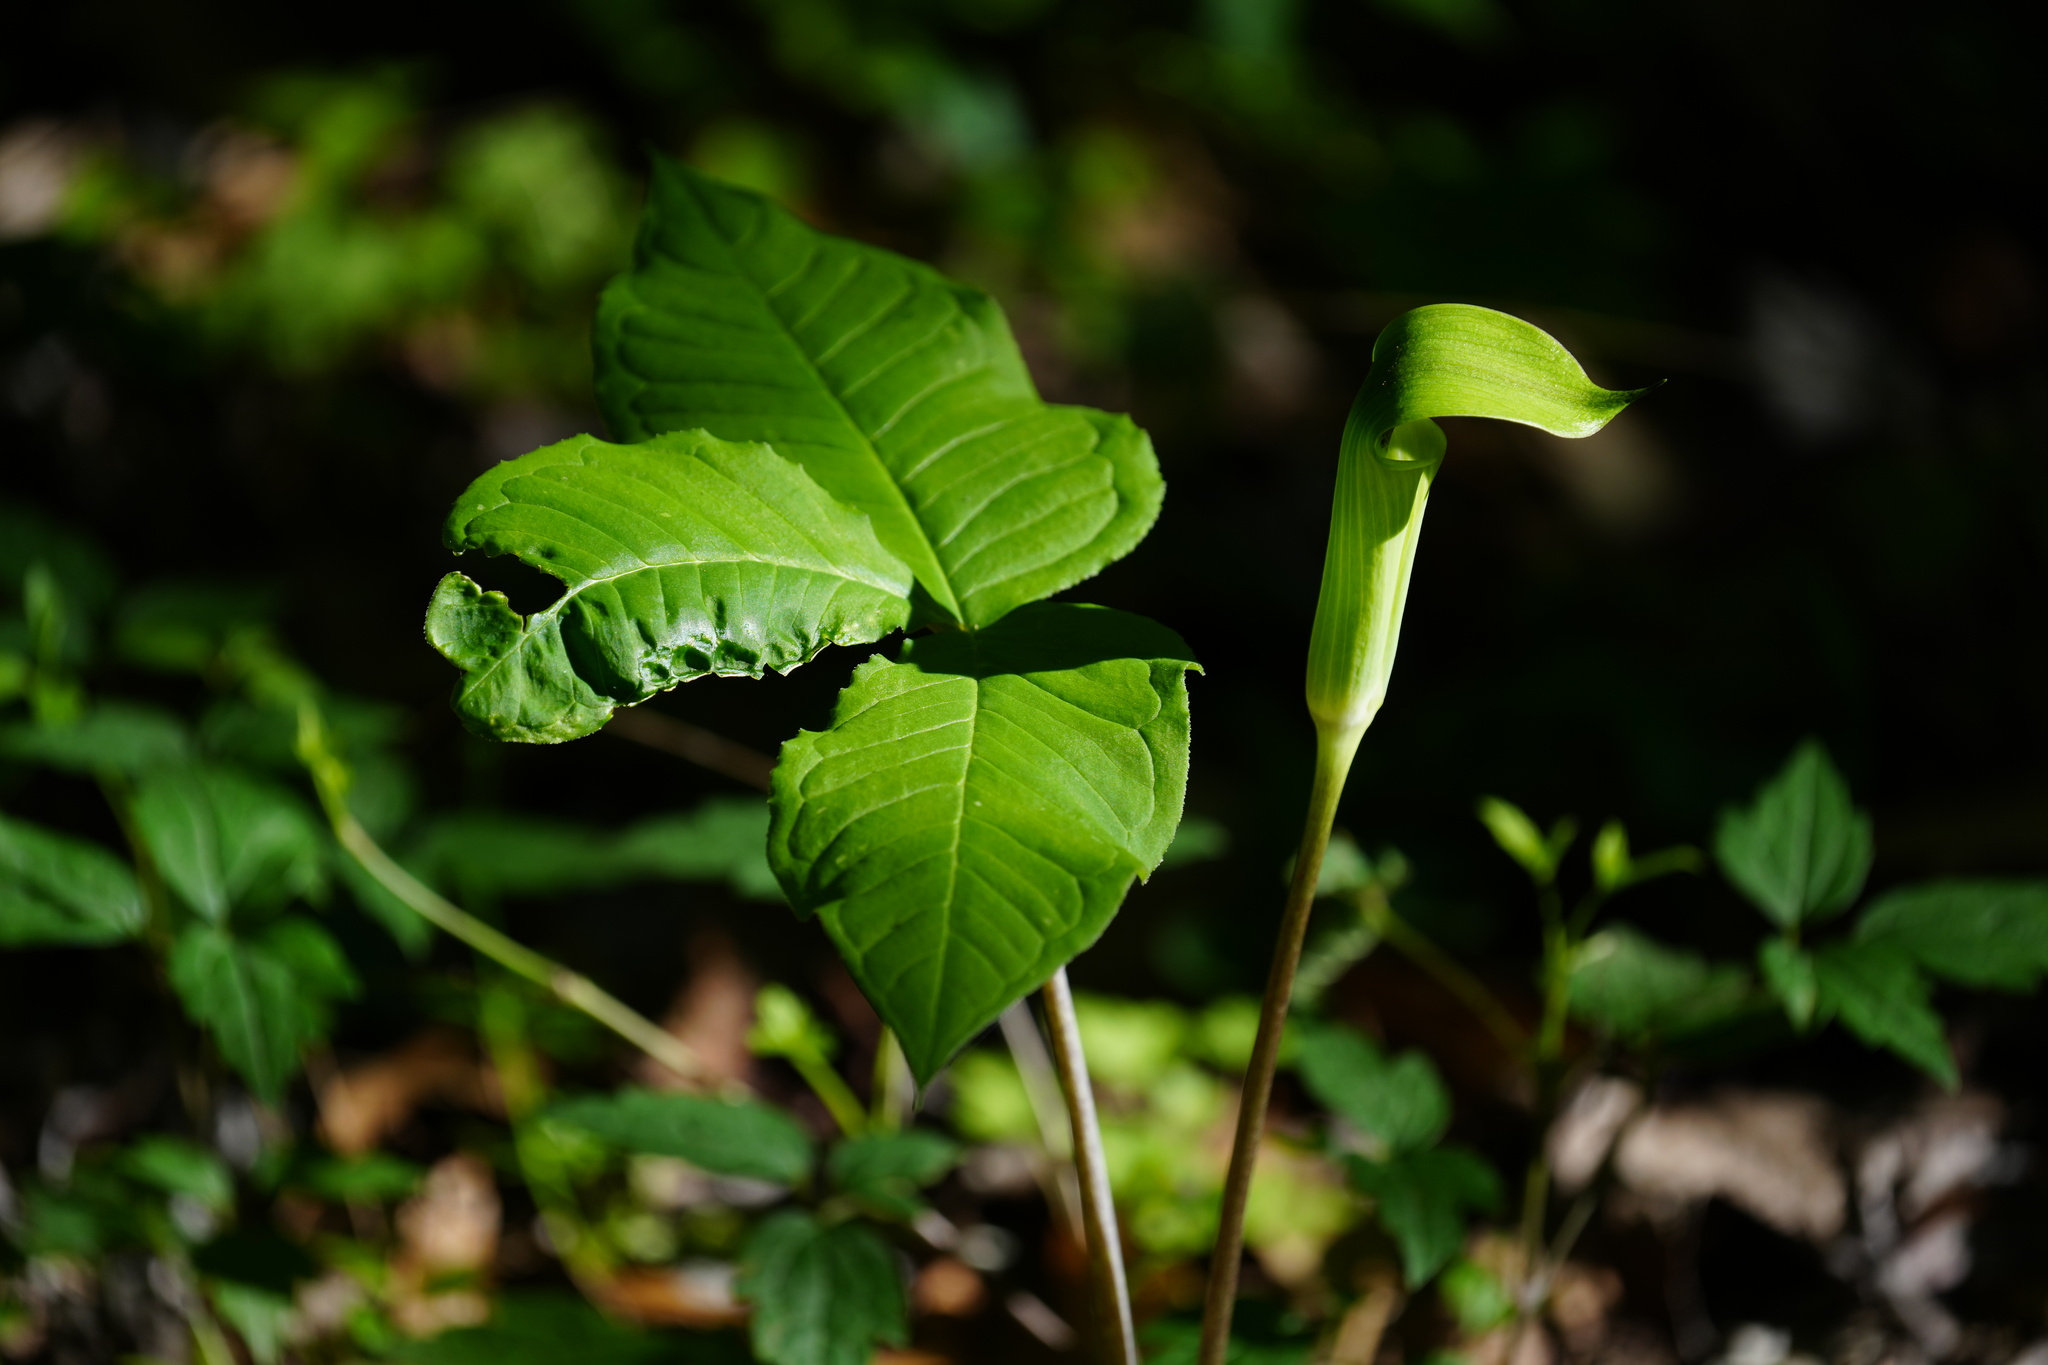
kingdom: Plantae
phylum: Tracheophyta
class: Liliopsida
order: Alismatales
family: Araceae
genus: Arisaema
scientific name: Arisaema quinatum
